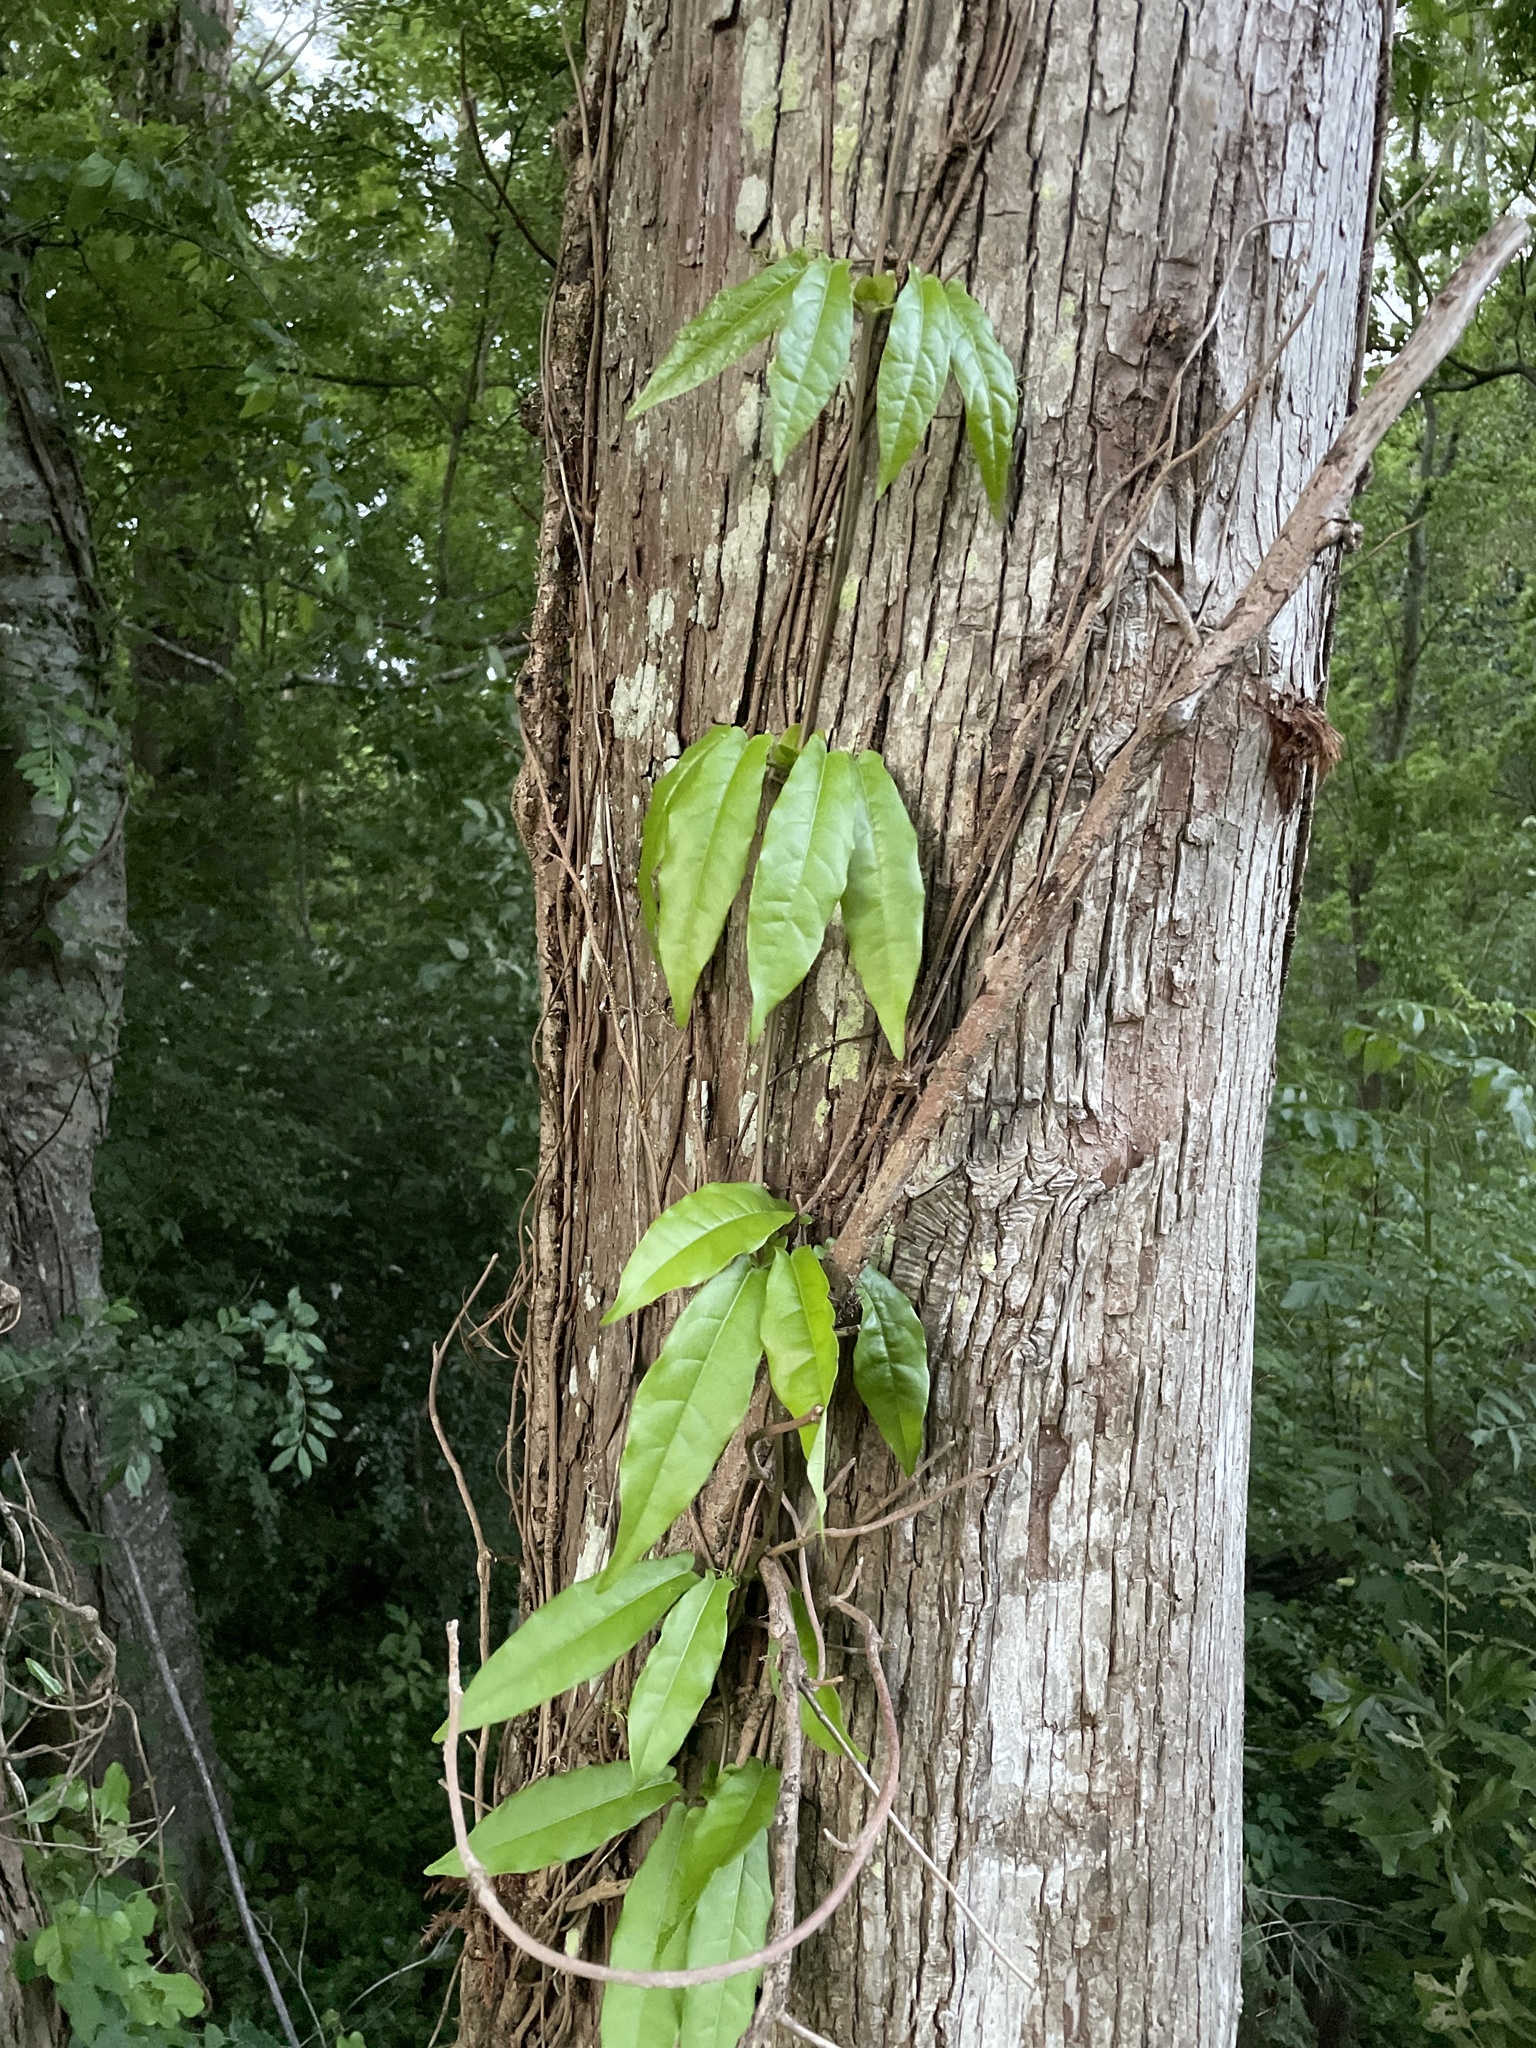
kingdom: Plantae
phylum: Tracheophyta
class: Magnoliopsida
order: Lamiales
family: Bignoniaceae
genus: Bignonia
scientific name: Bignonia capreolata
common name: Crossvine
